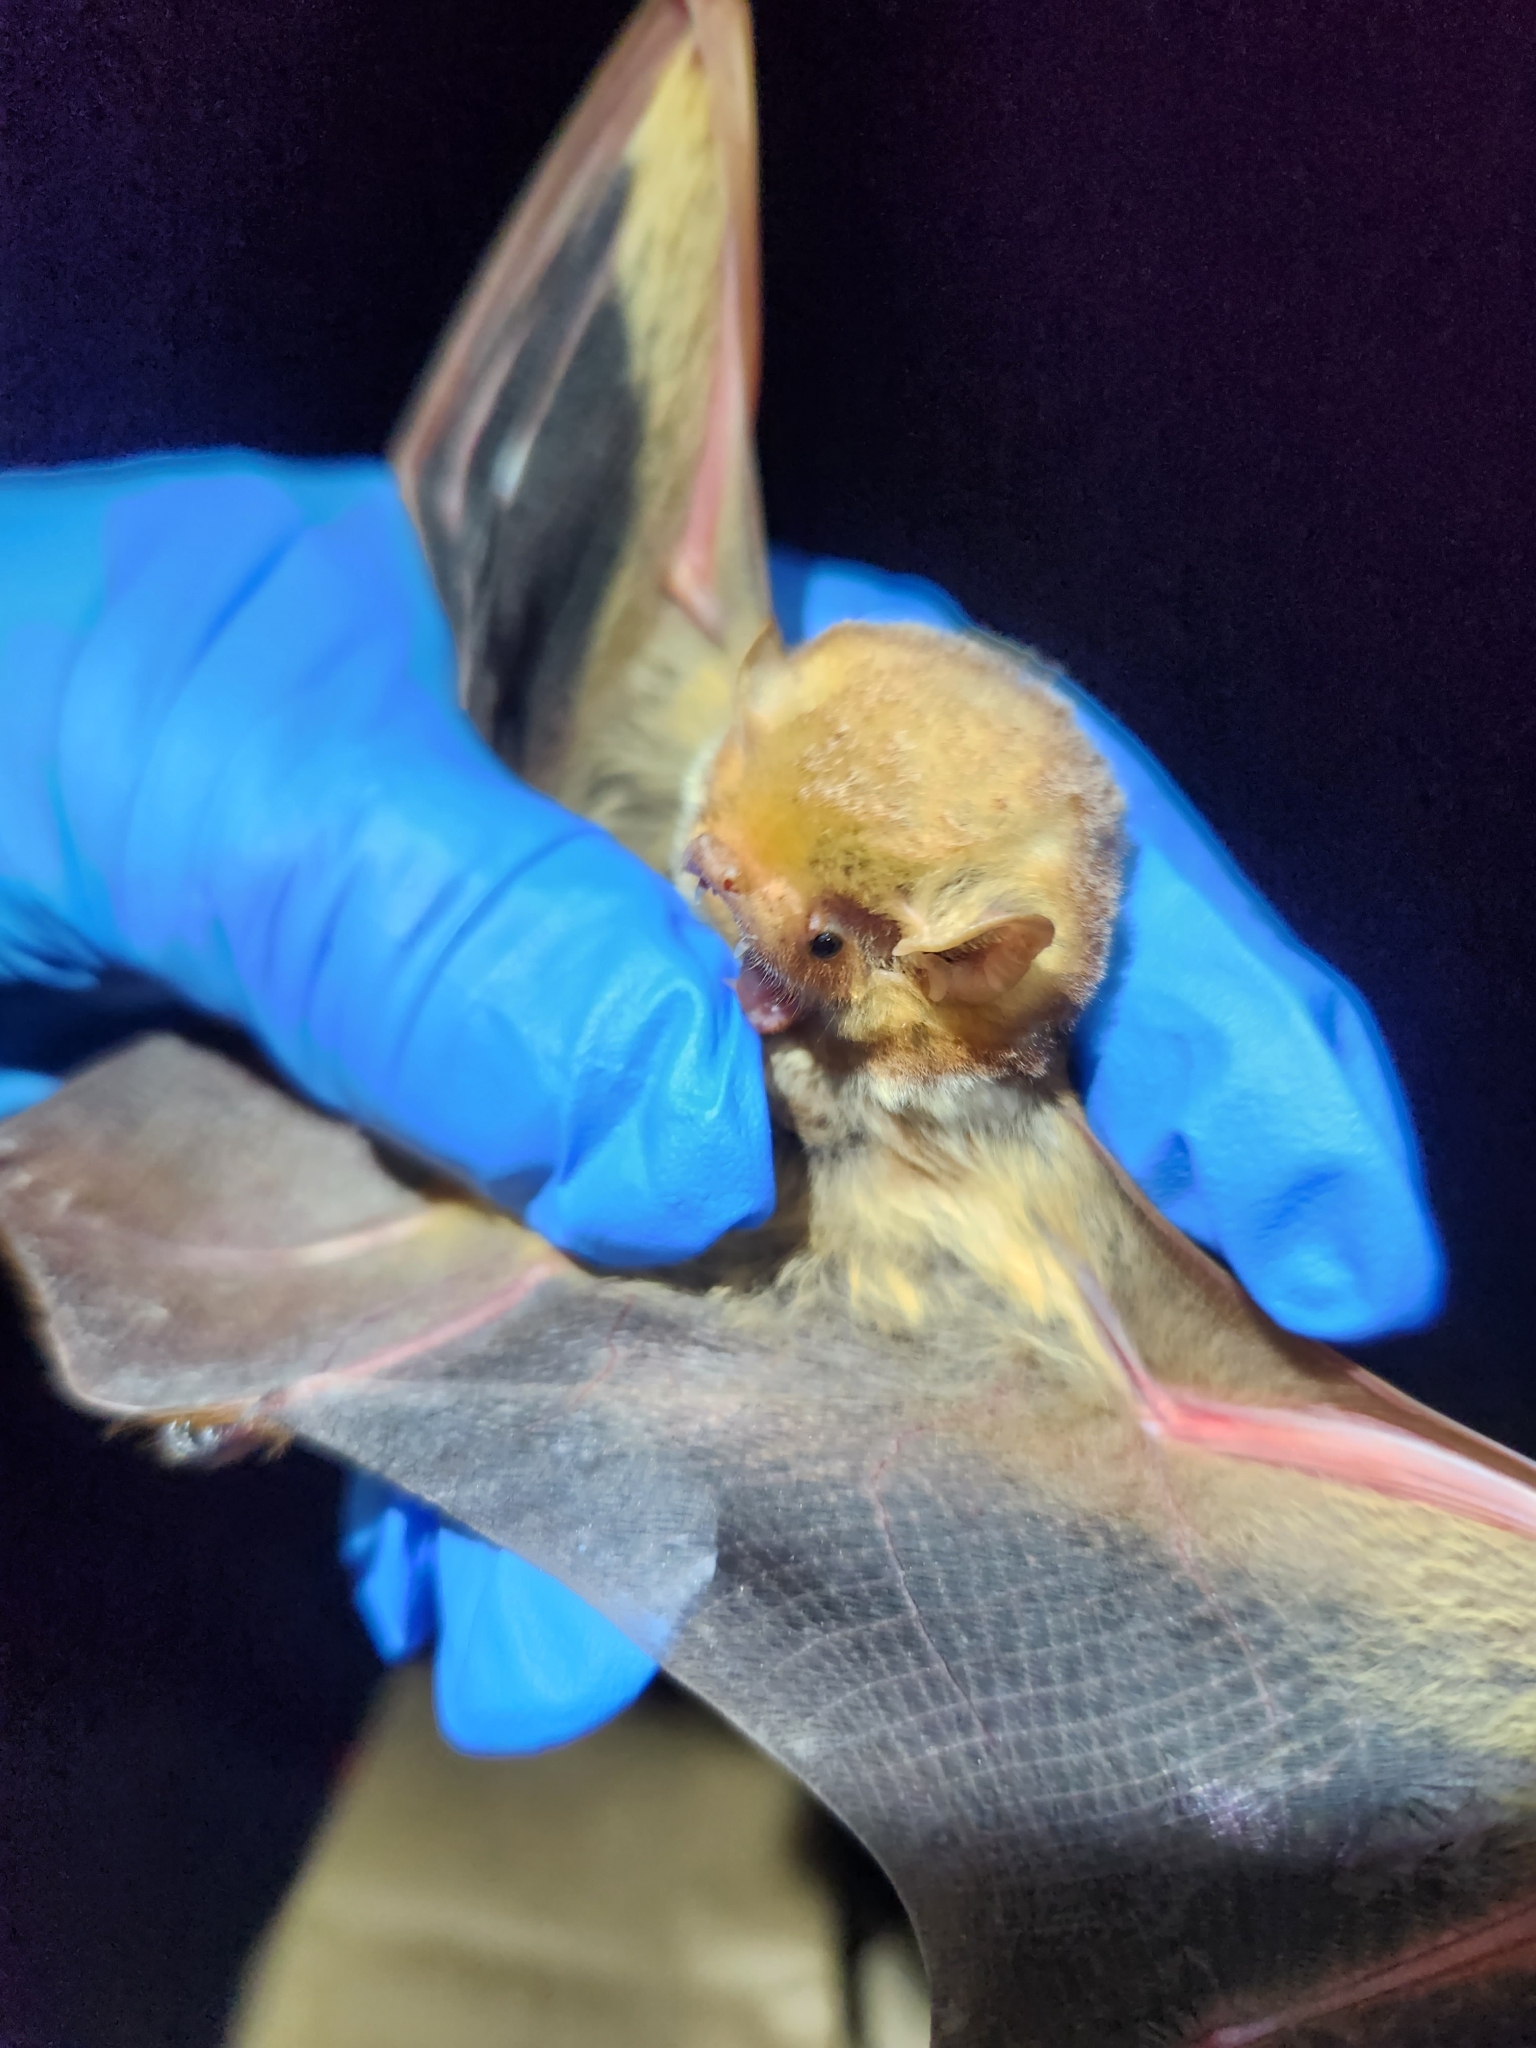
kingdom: Animalia
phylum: Chordata
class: Mammalia
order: Chiroptera
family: Vespertilionidae
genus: Lasiurus
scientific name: Lasiurus borealis
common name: Eastern red bat
